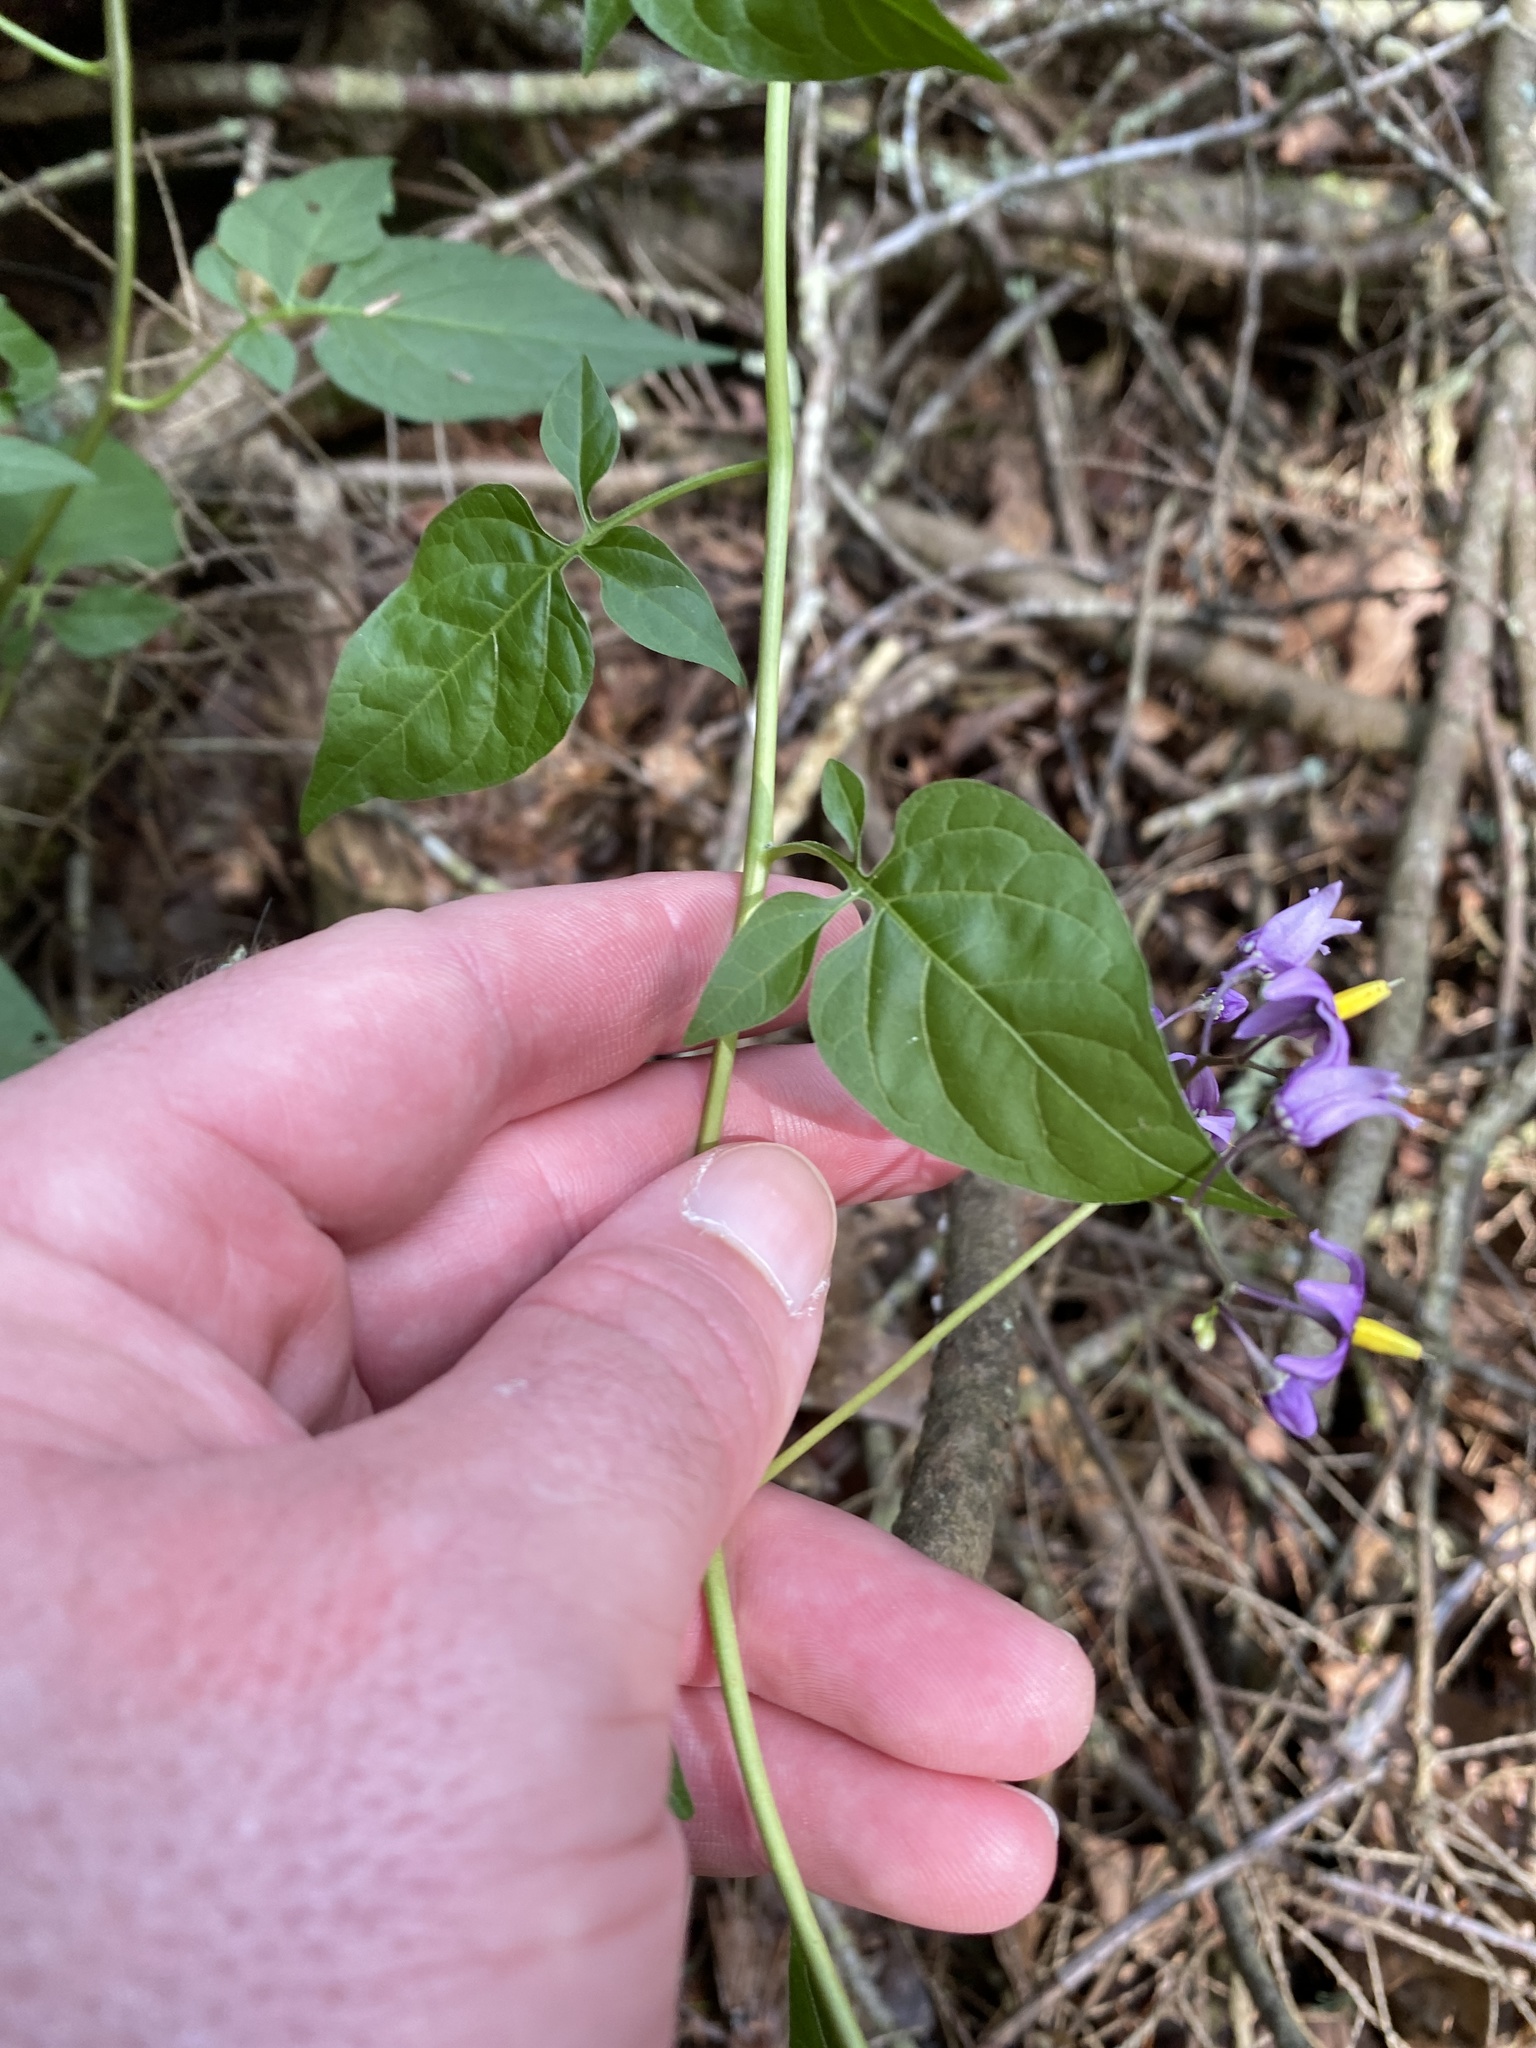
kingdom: Plantae
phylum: Tracheophyta
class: Magnoliopsida
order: Solanales
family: Solanaceae
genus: Solanum
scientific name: Solanum dulcamara
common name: Climbing nightshade
